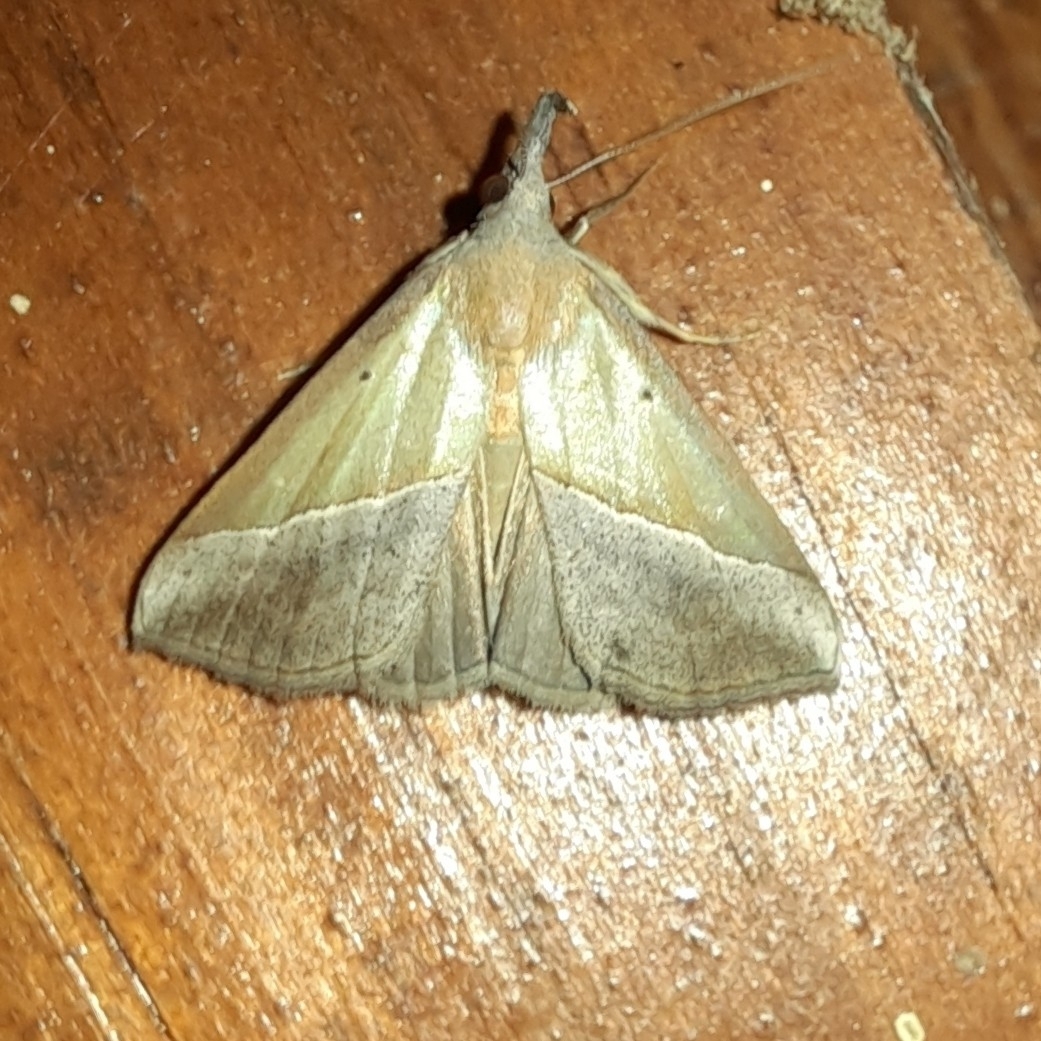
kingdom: Animalia
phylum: Arthropoda
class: Insecta
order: Lepidoptera
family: Erebidae
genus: Hypena
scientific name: Hypena lividalis
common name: Chevron snout
